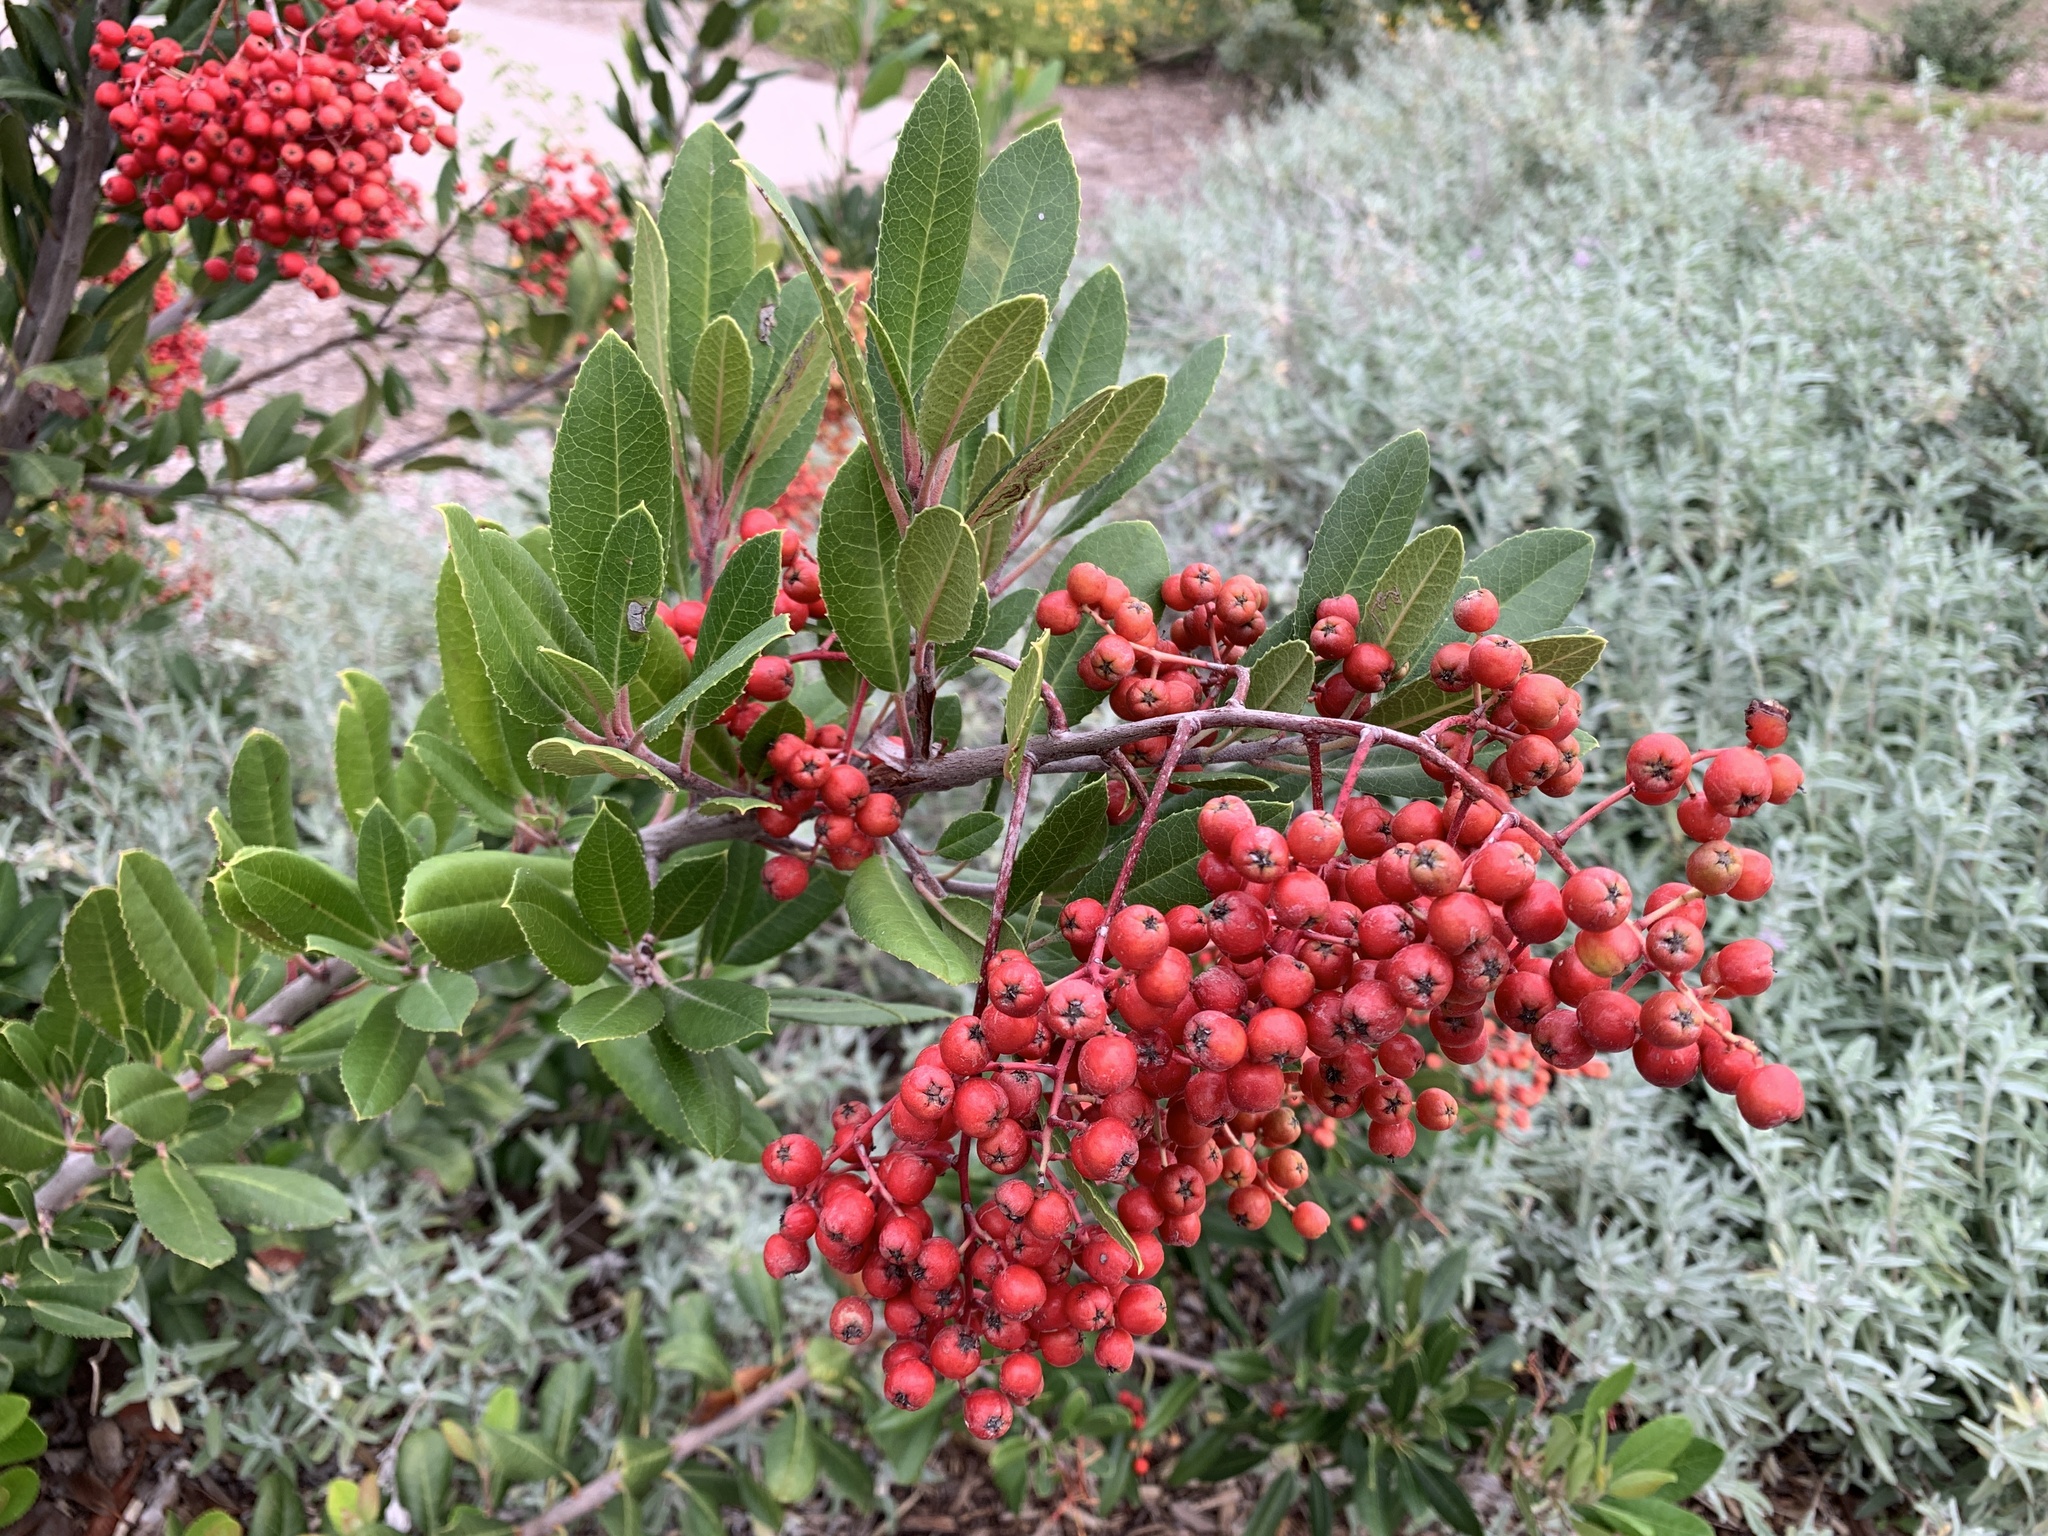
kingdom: Plantae
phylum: Tracheophyta
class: Magnoliopsida
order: Rosales
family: Rosaceae
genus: Heteromeles
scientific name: Heteromeles arbutifolia
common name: California-holly
